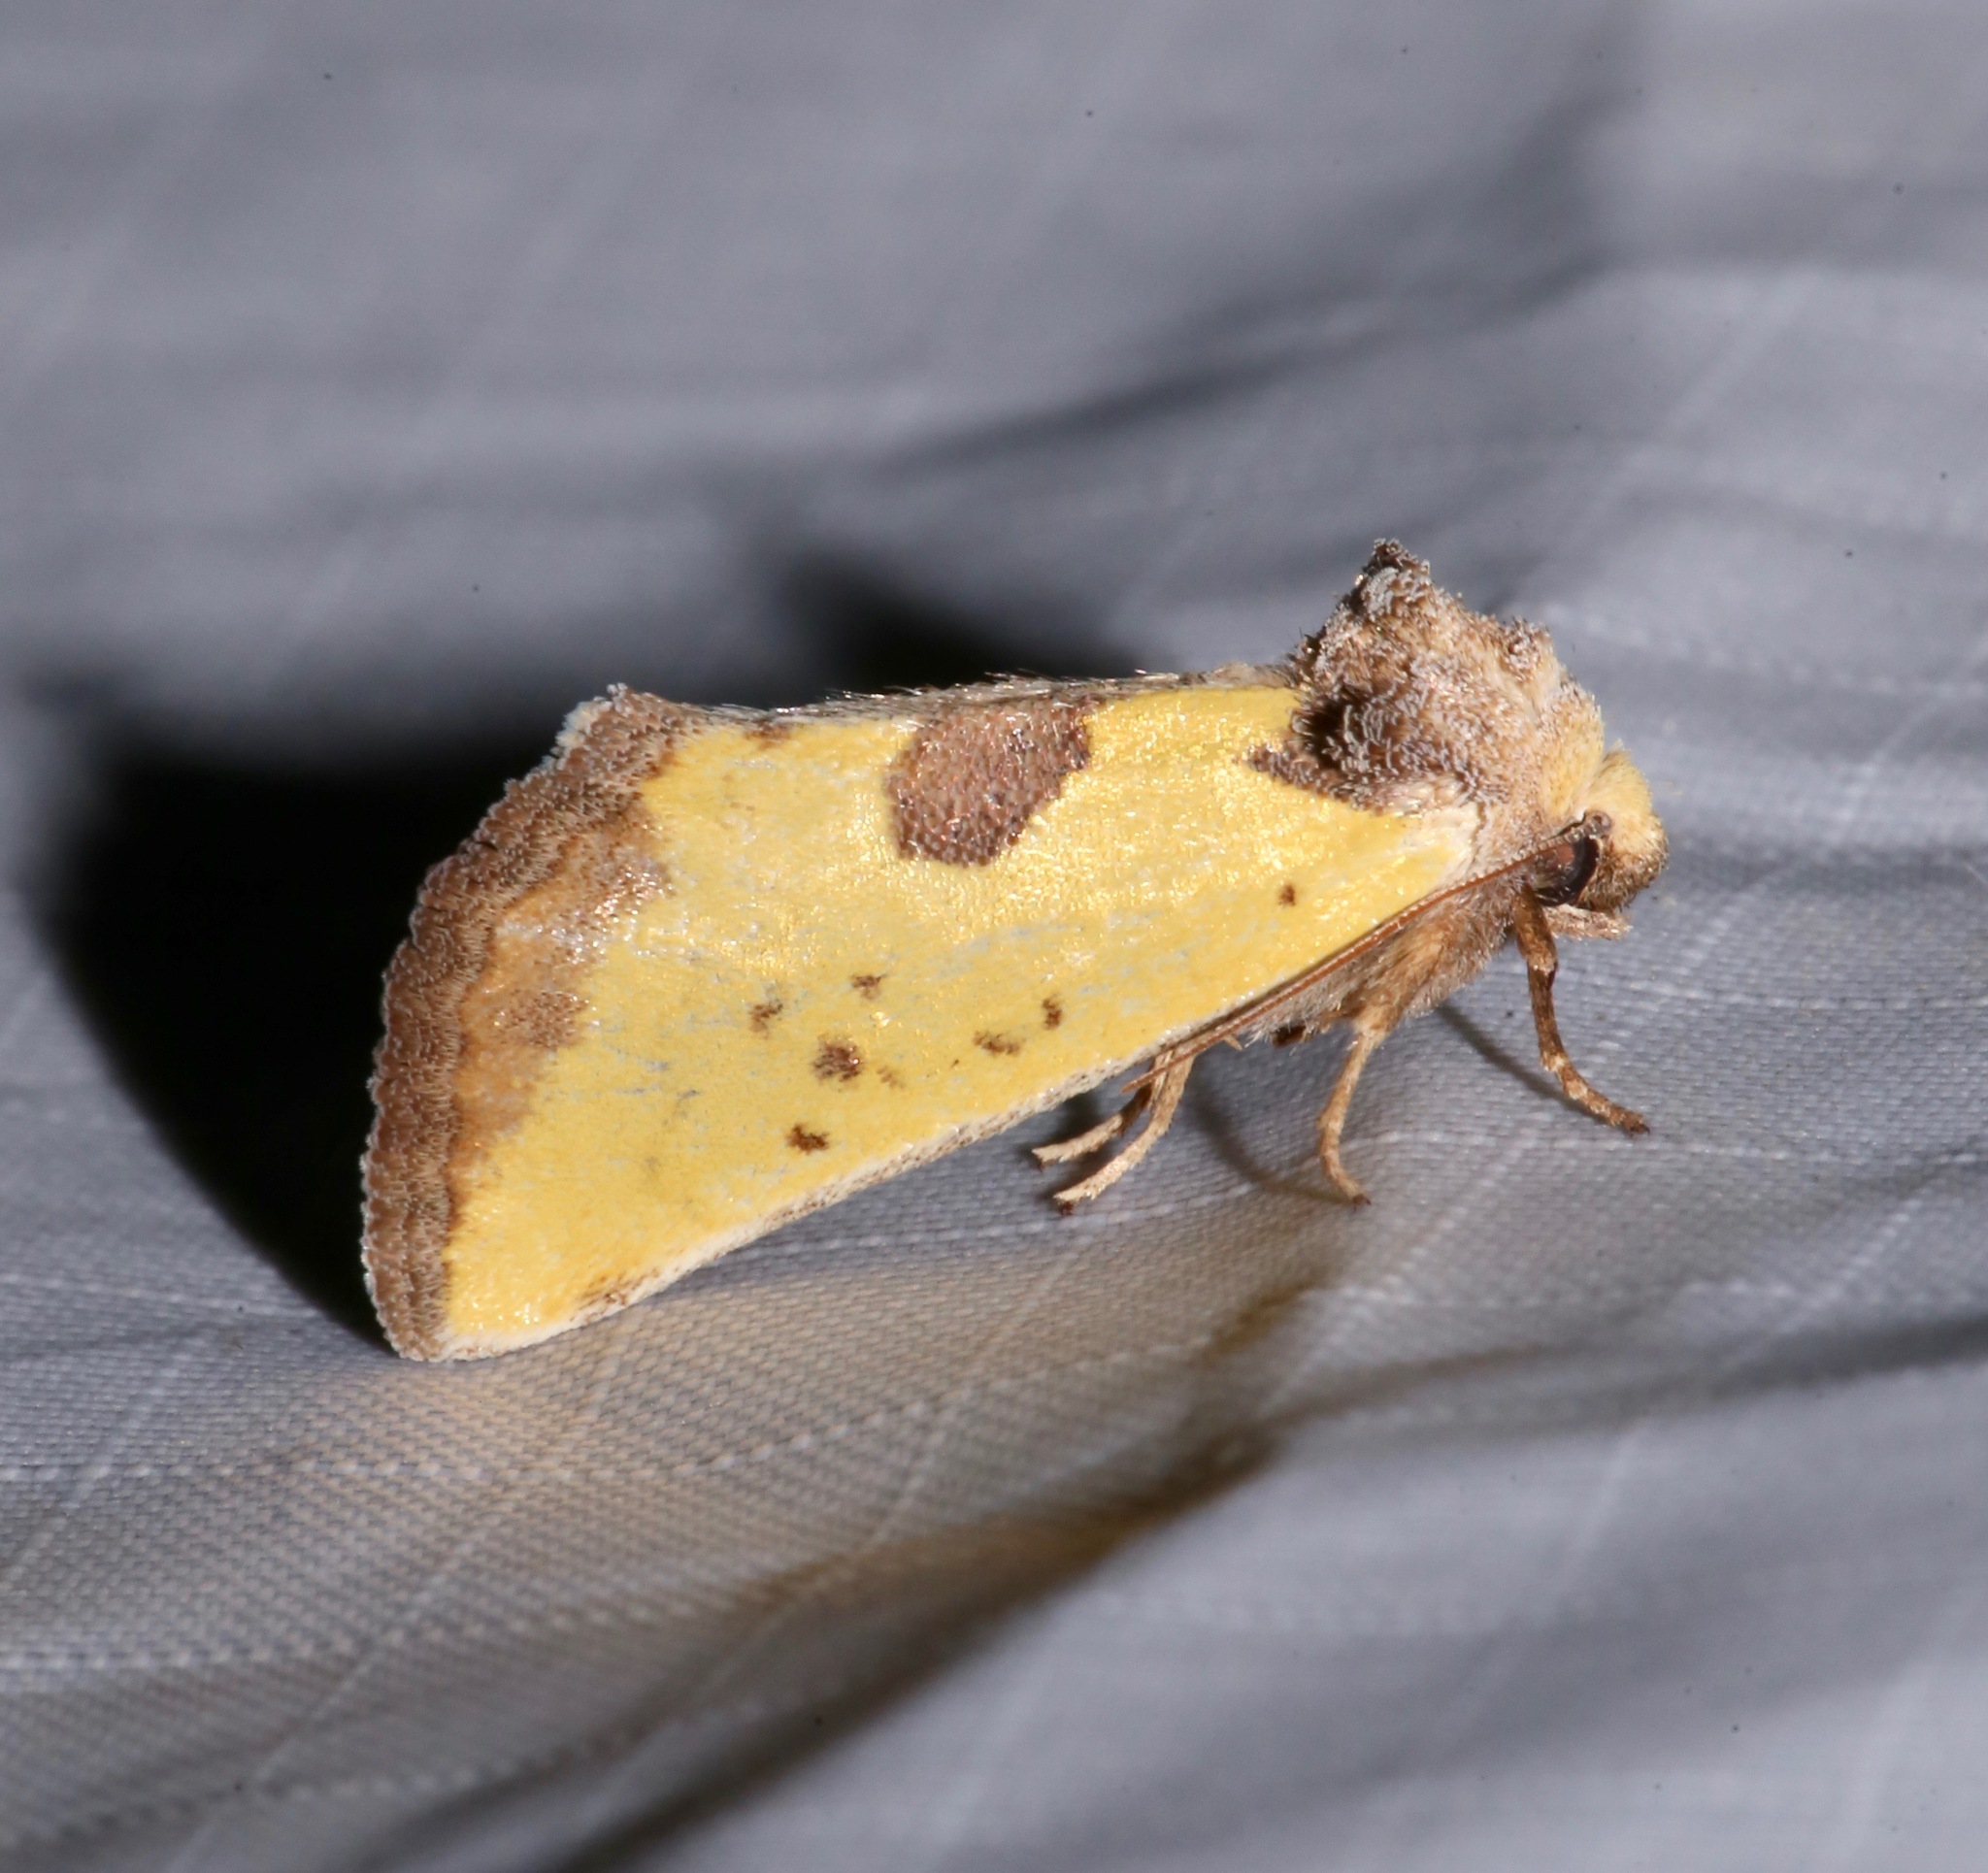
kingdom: Animalia
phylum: Arthropoda
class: Insecta
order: Lepidoptera
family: Noctuidae
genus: Stiria
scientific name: Stiria sulphurea
